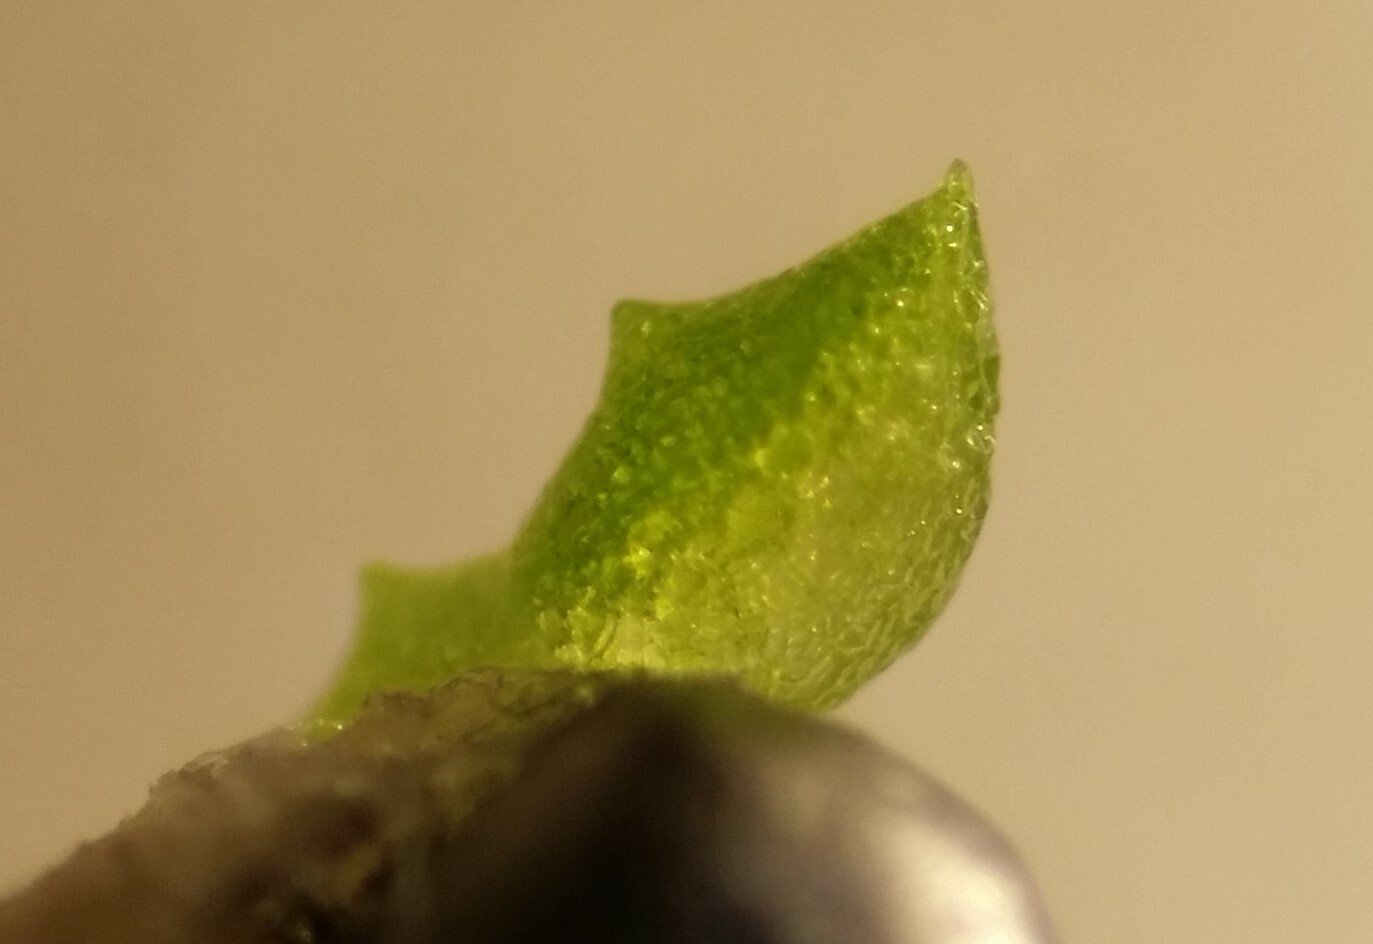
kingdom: Plantae
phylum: Tracheophyta
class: Liliopsida
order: Alismatales
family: Araceae
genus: Wolffia
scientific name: Wolffia brasiliensis
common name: Brazilian watermeal
